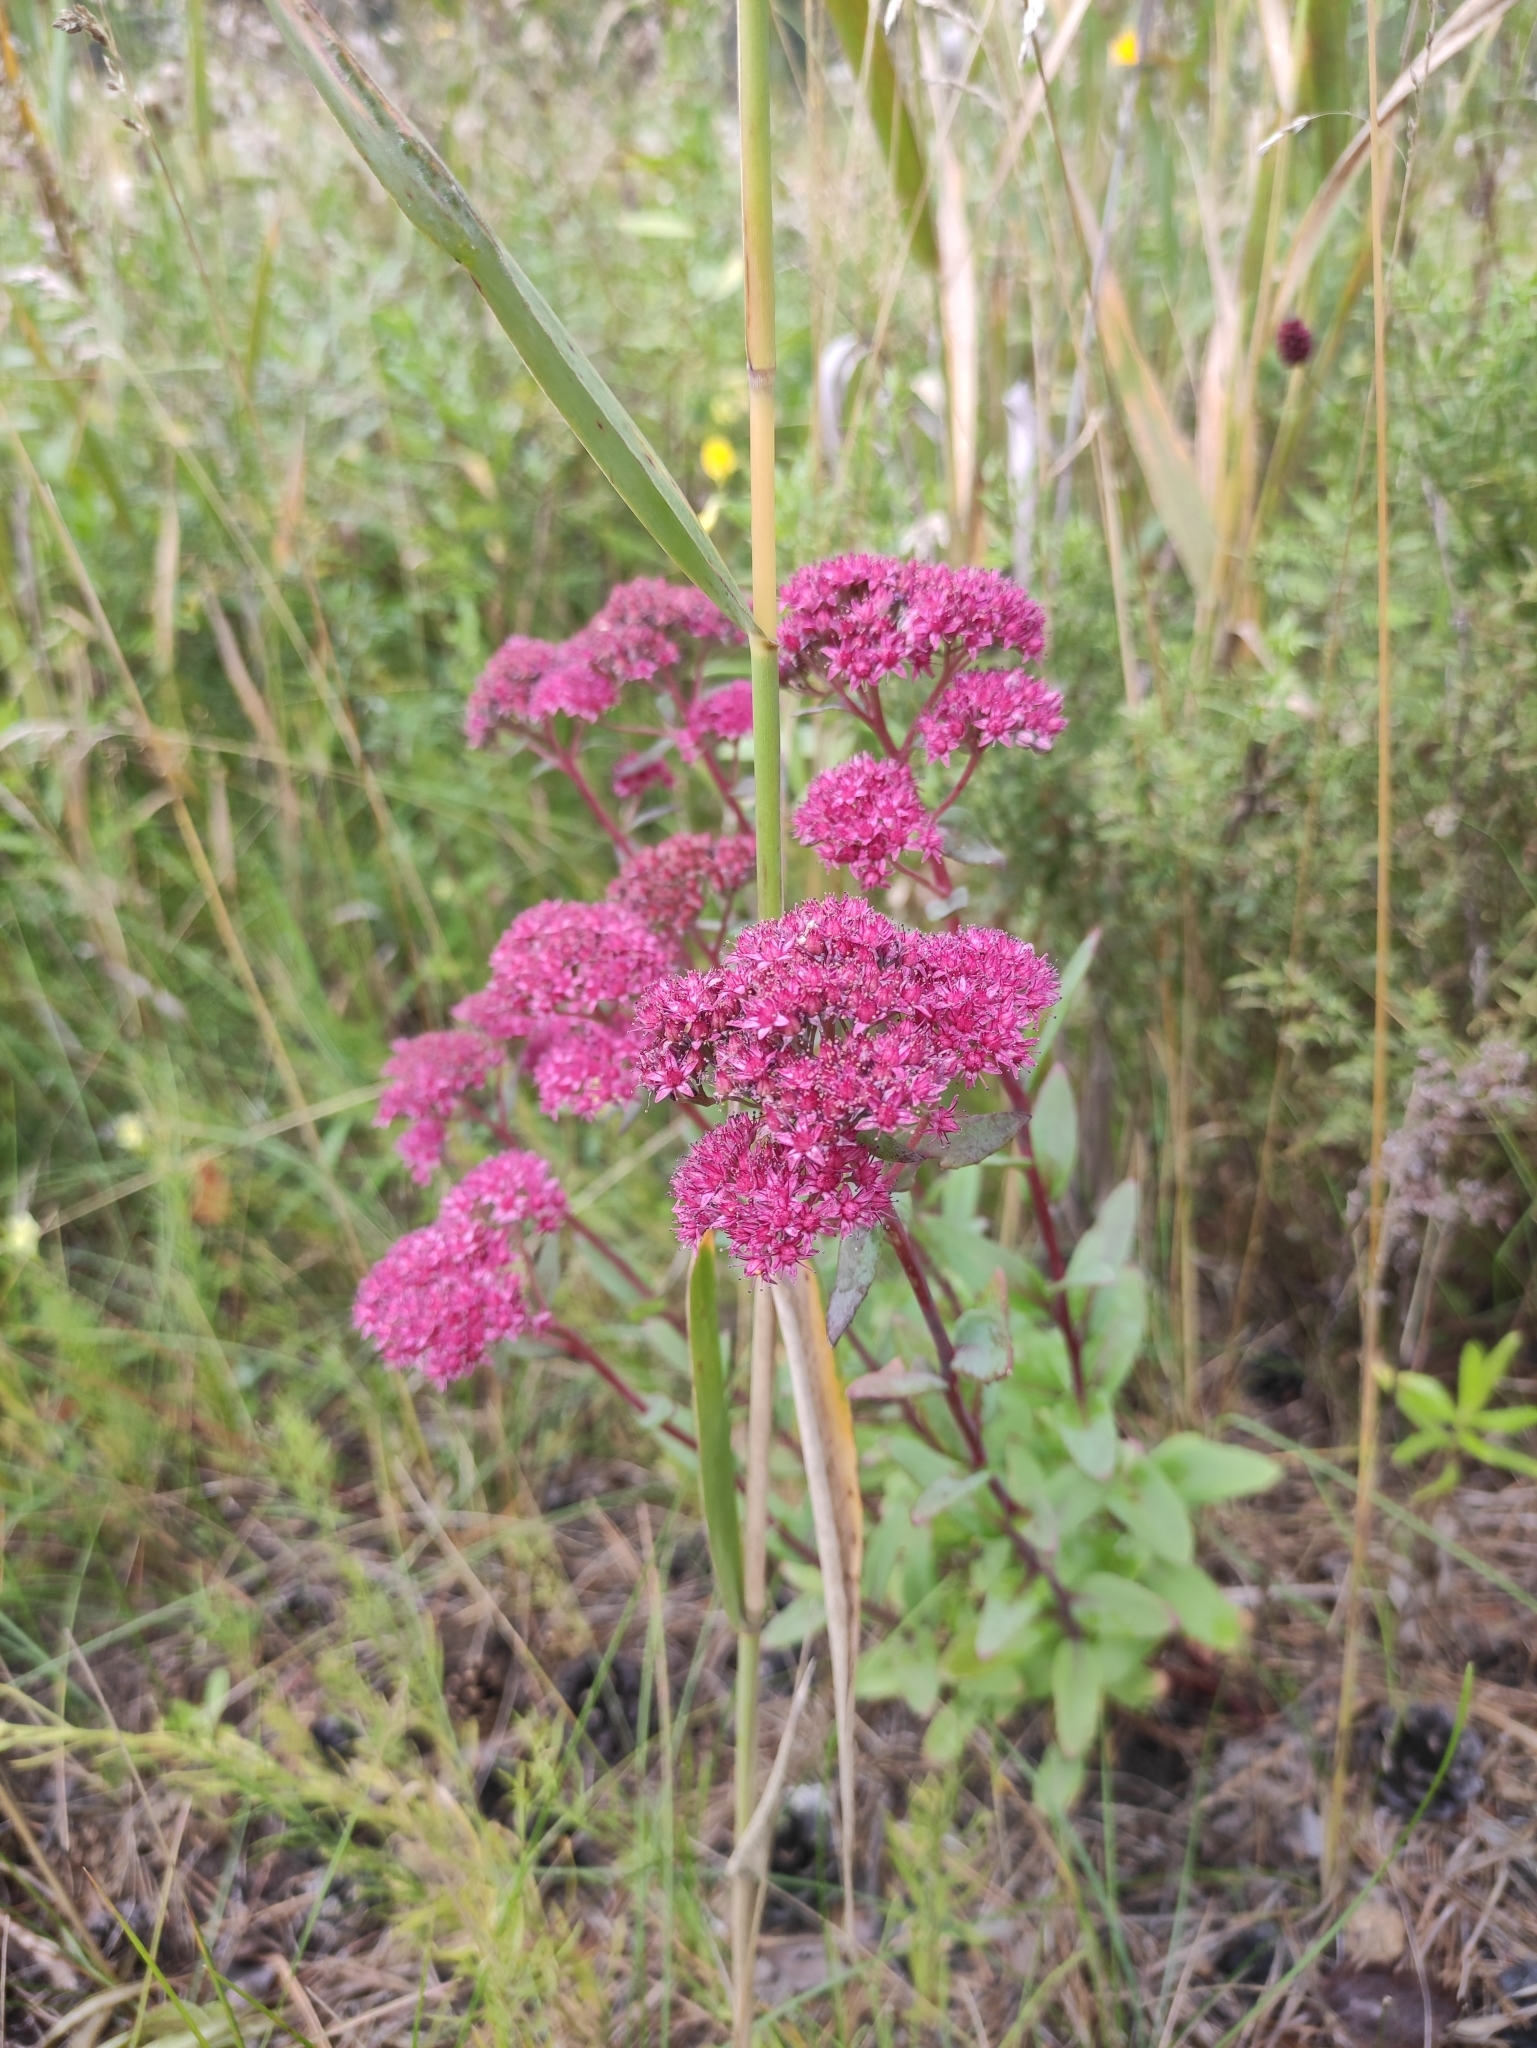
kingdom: Plantae
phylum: Tracheophyta
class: Magnoliopsida
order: Saxifragales
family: Crassulaceae
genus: Hylotelephium
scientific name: Hylotelephium telephium
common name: Live-forever
